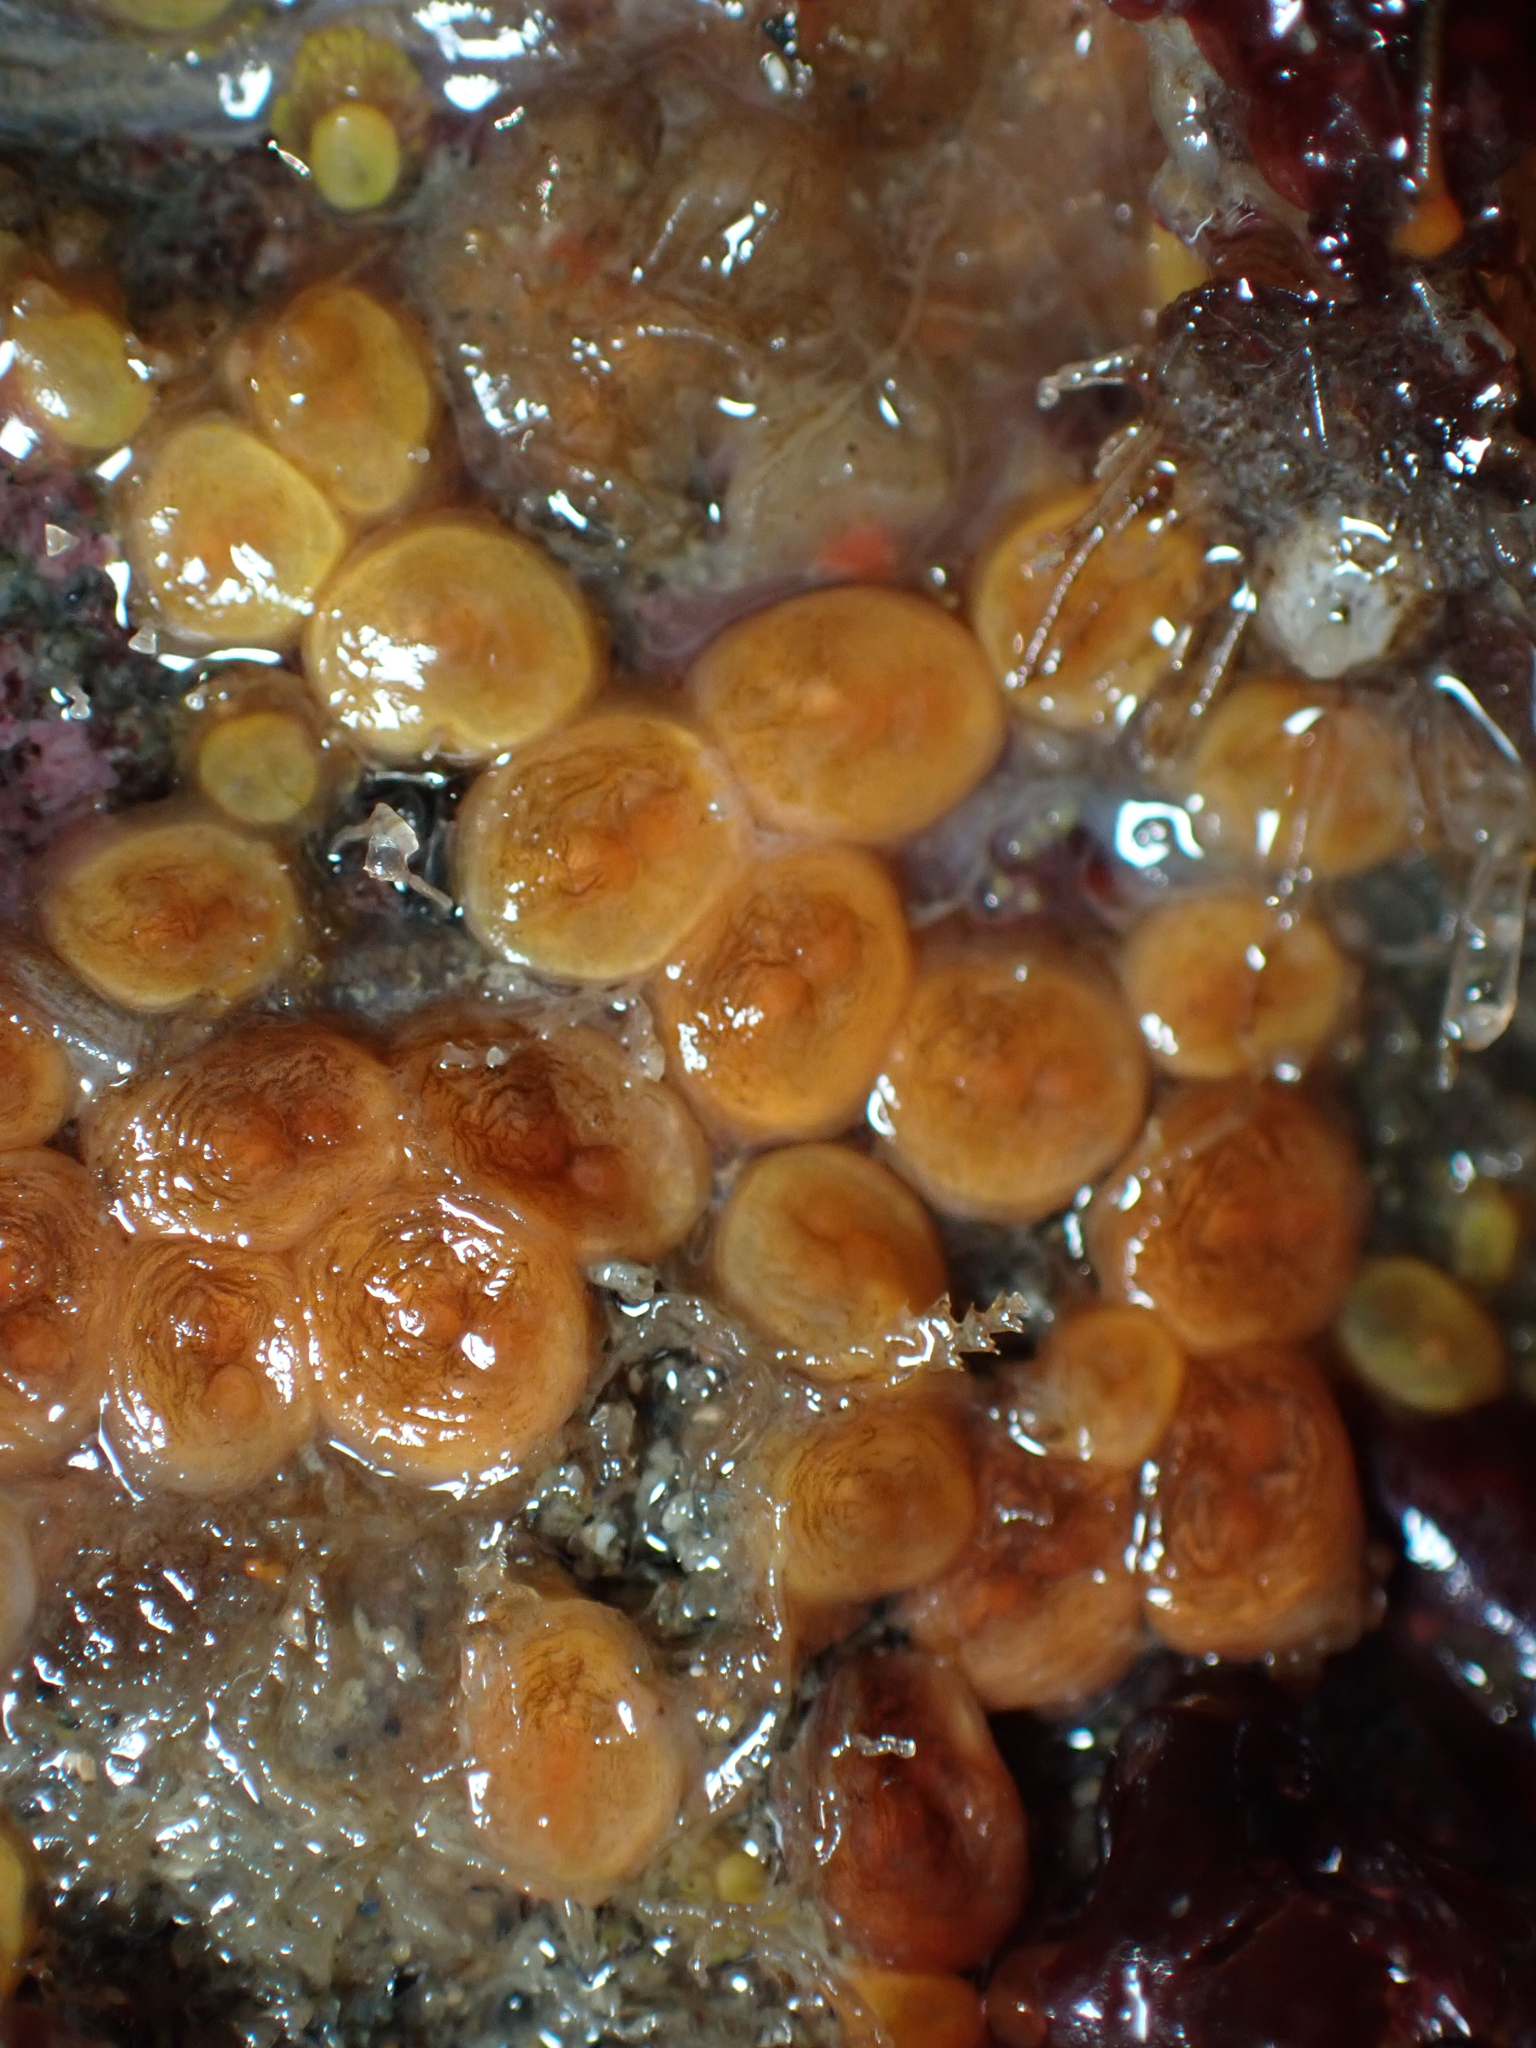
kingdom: Animalia
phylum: Chordata
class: Ascidiacea
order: Stolidobranchia
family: Styelidae
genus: Metandrocarpa
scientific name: Metandrocarpa taylori
